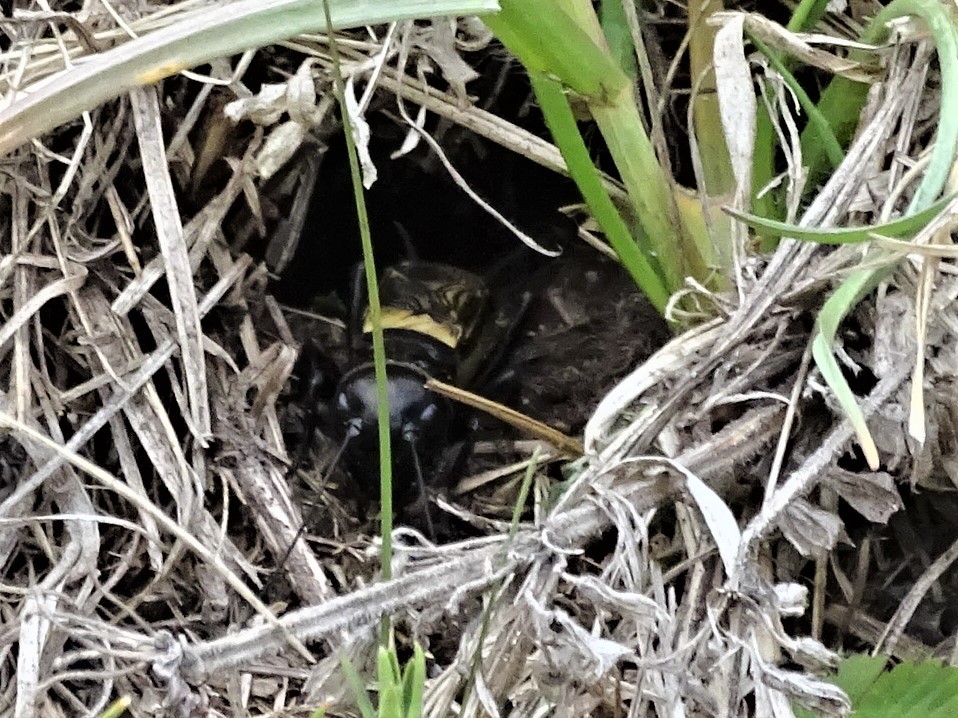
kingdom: Animalia
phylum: Arthropoda
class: Insecta
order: Orthoptera
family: Gryllidae
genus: Gryllus
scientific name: Gryllus campestris
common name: Field cricket
